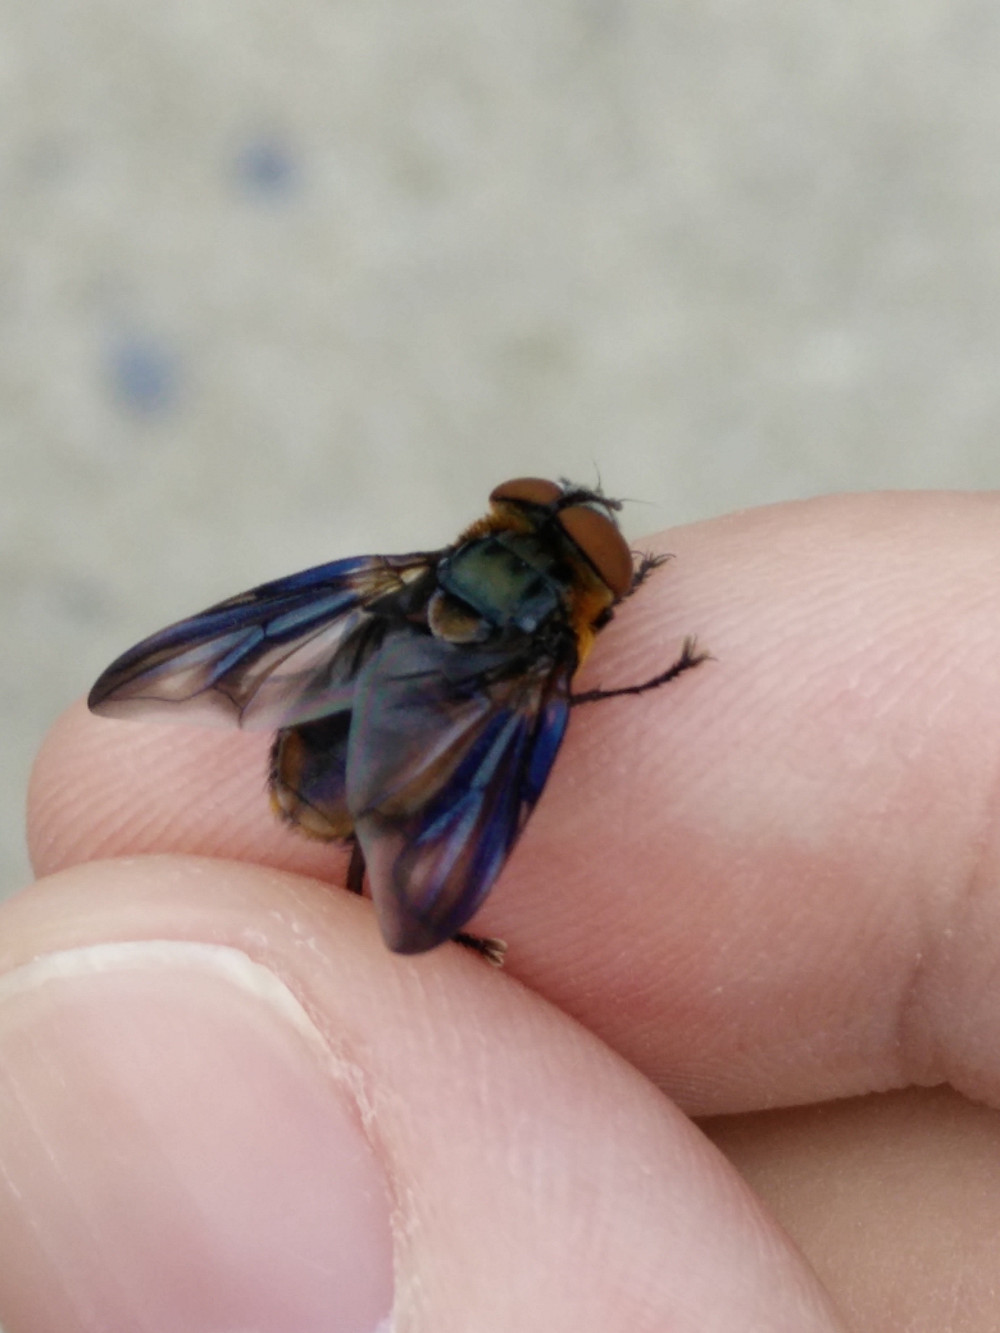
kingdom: Animalia
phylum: Arthropoda
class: Insecta
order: Diptera
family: Tachinidae
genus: Phasia
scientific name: Phasia hemiptera
